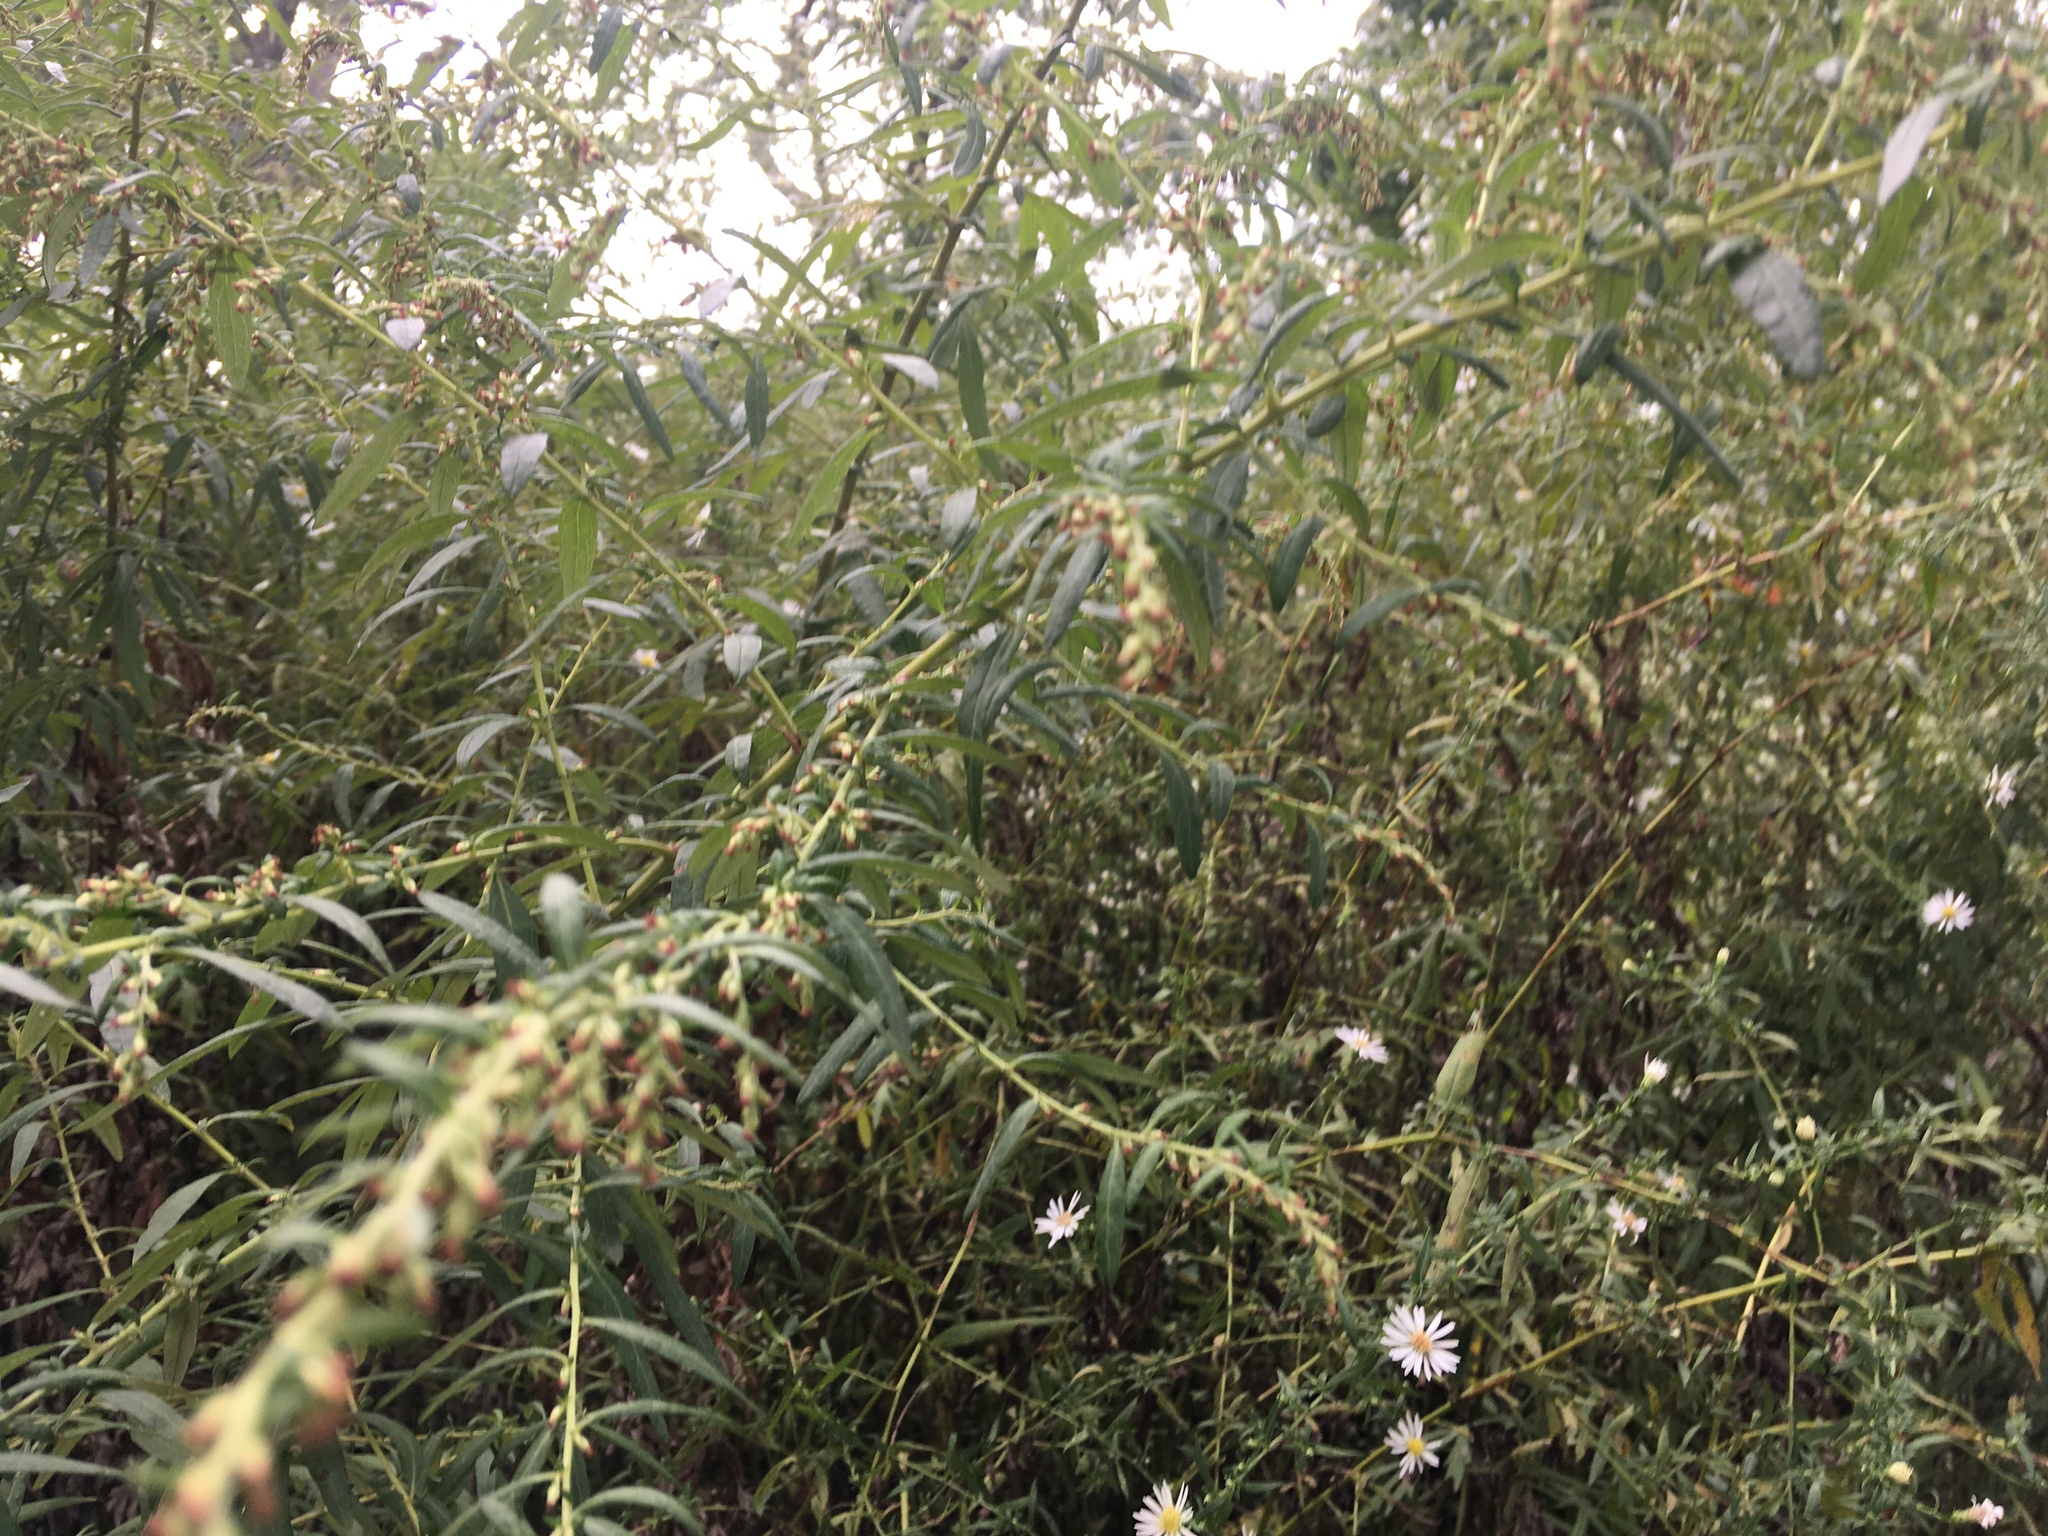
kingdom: Plantae
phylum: Tracheophyta
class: Magnoliopsida
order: Asterales
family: Asteraceae
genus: Artemisia
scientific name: Artemisia vulgaris
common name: Mugwort
